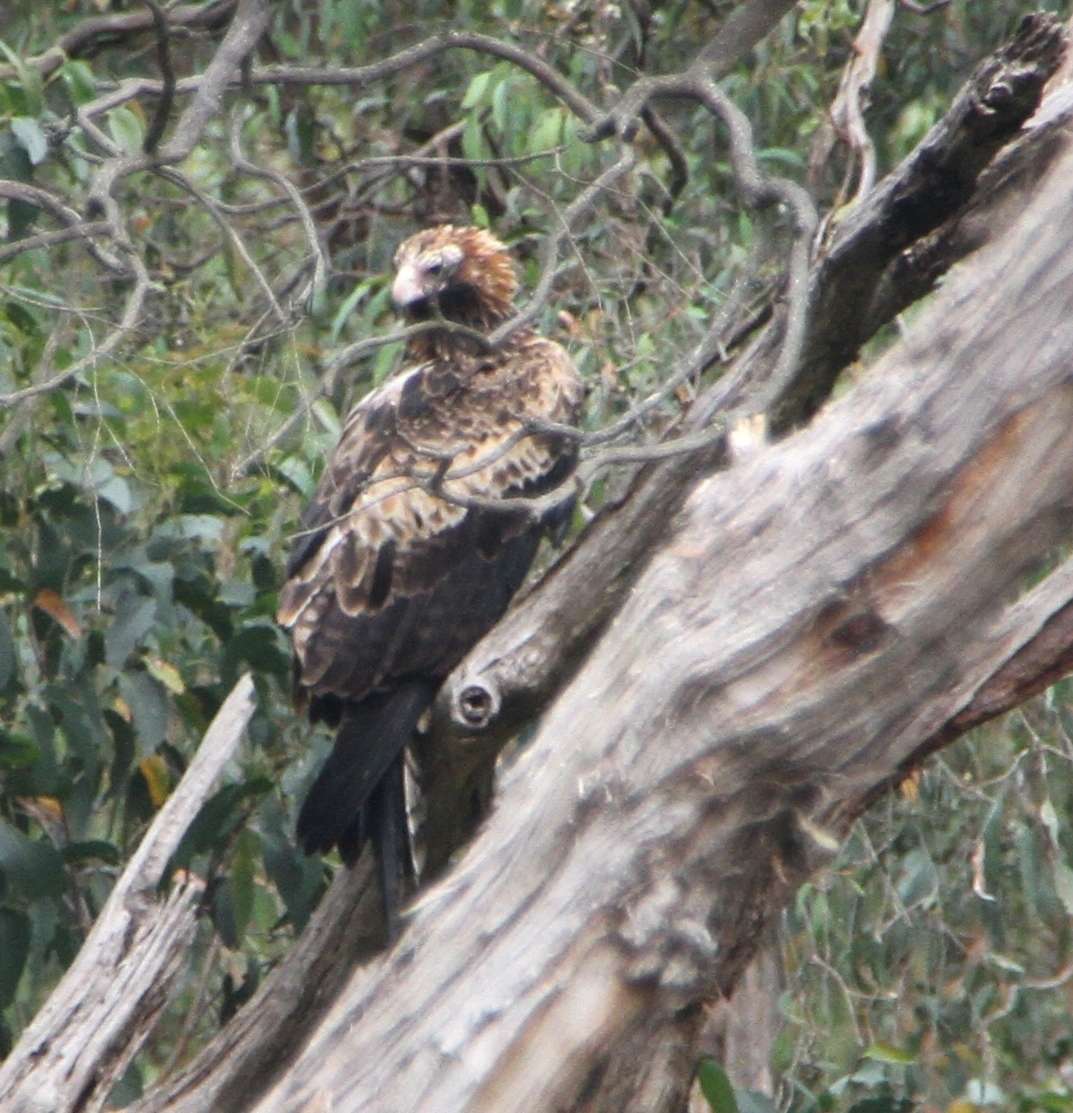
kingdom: Animalia
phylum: Chordata
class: Aves
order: Accipitriformes
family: Accipitridae
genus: Aquila
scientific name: Aquila audax
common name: Wedge-tailed eagle
